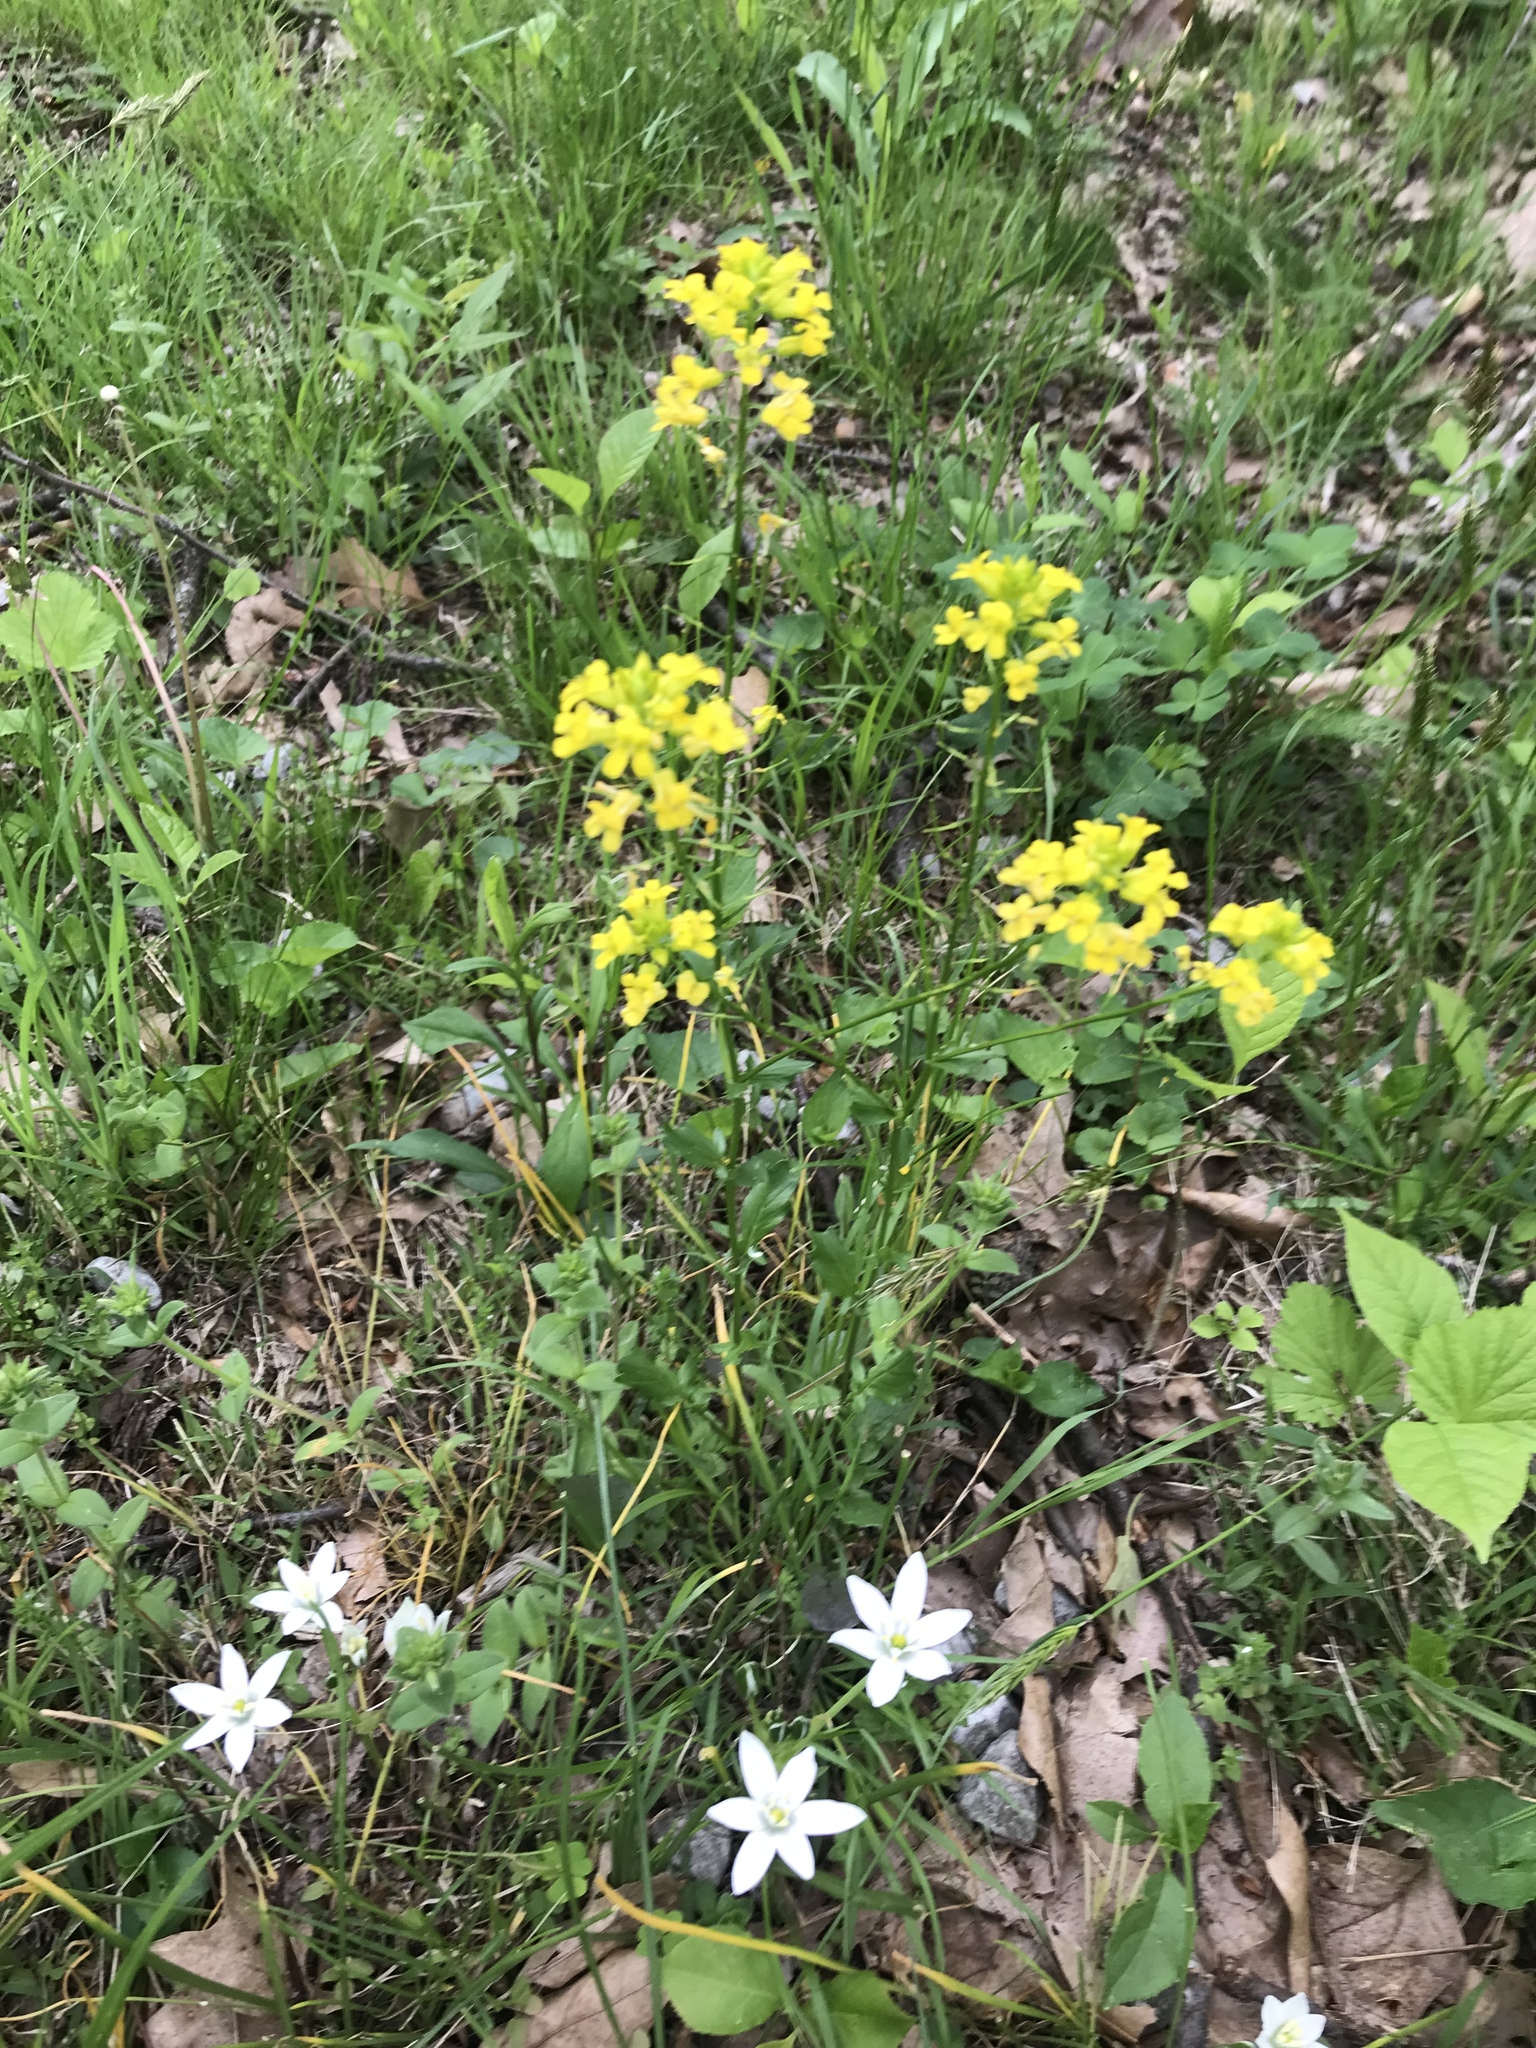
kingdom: Plantae
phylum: Tracheophyta
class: Magnoliopsida
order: Brassicales
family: Brassicaceae
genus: Barbarea
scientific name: Barbarea vulgaris
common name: Cressy-greens
